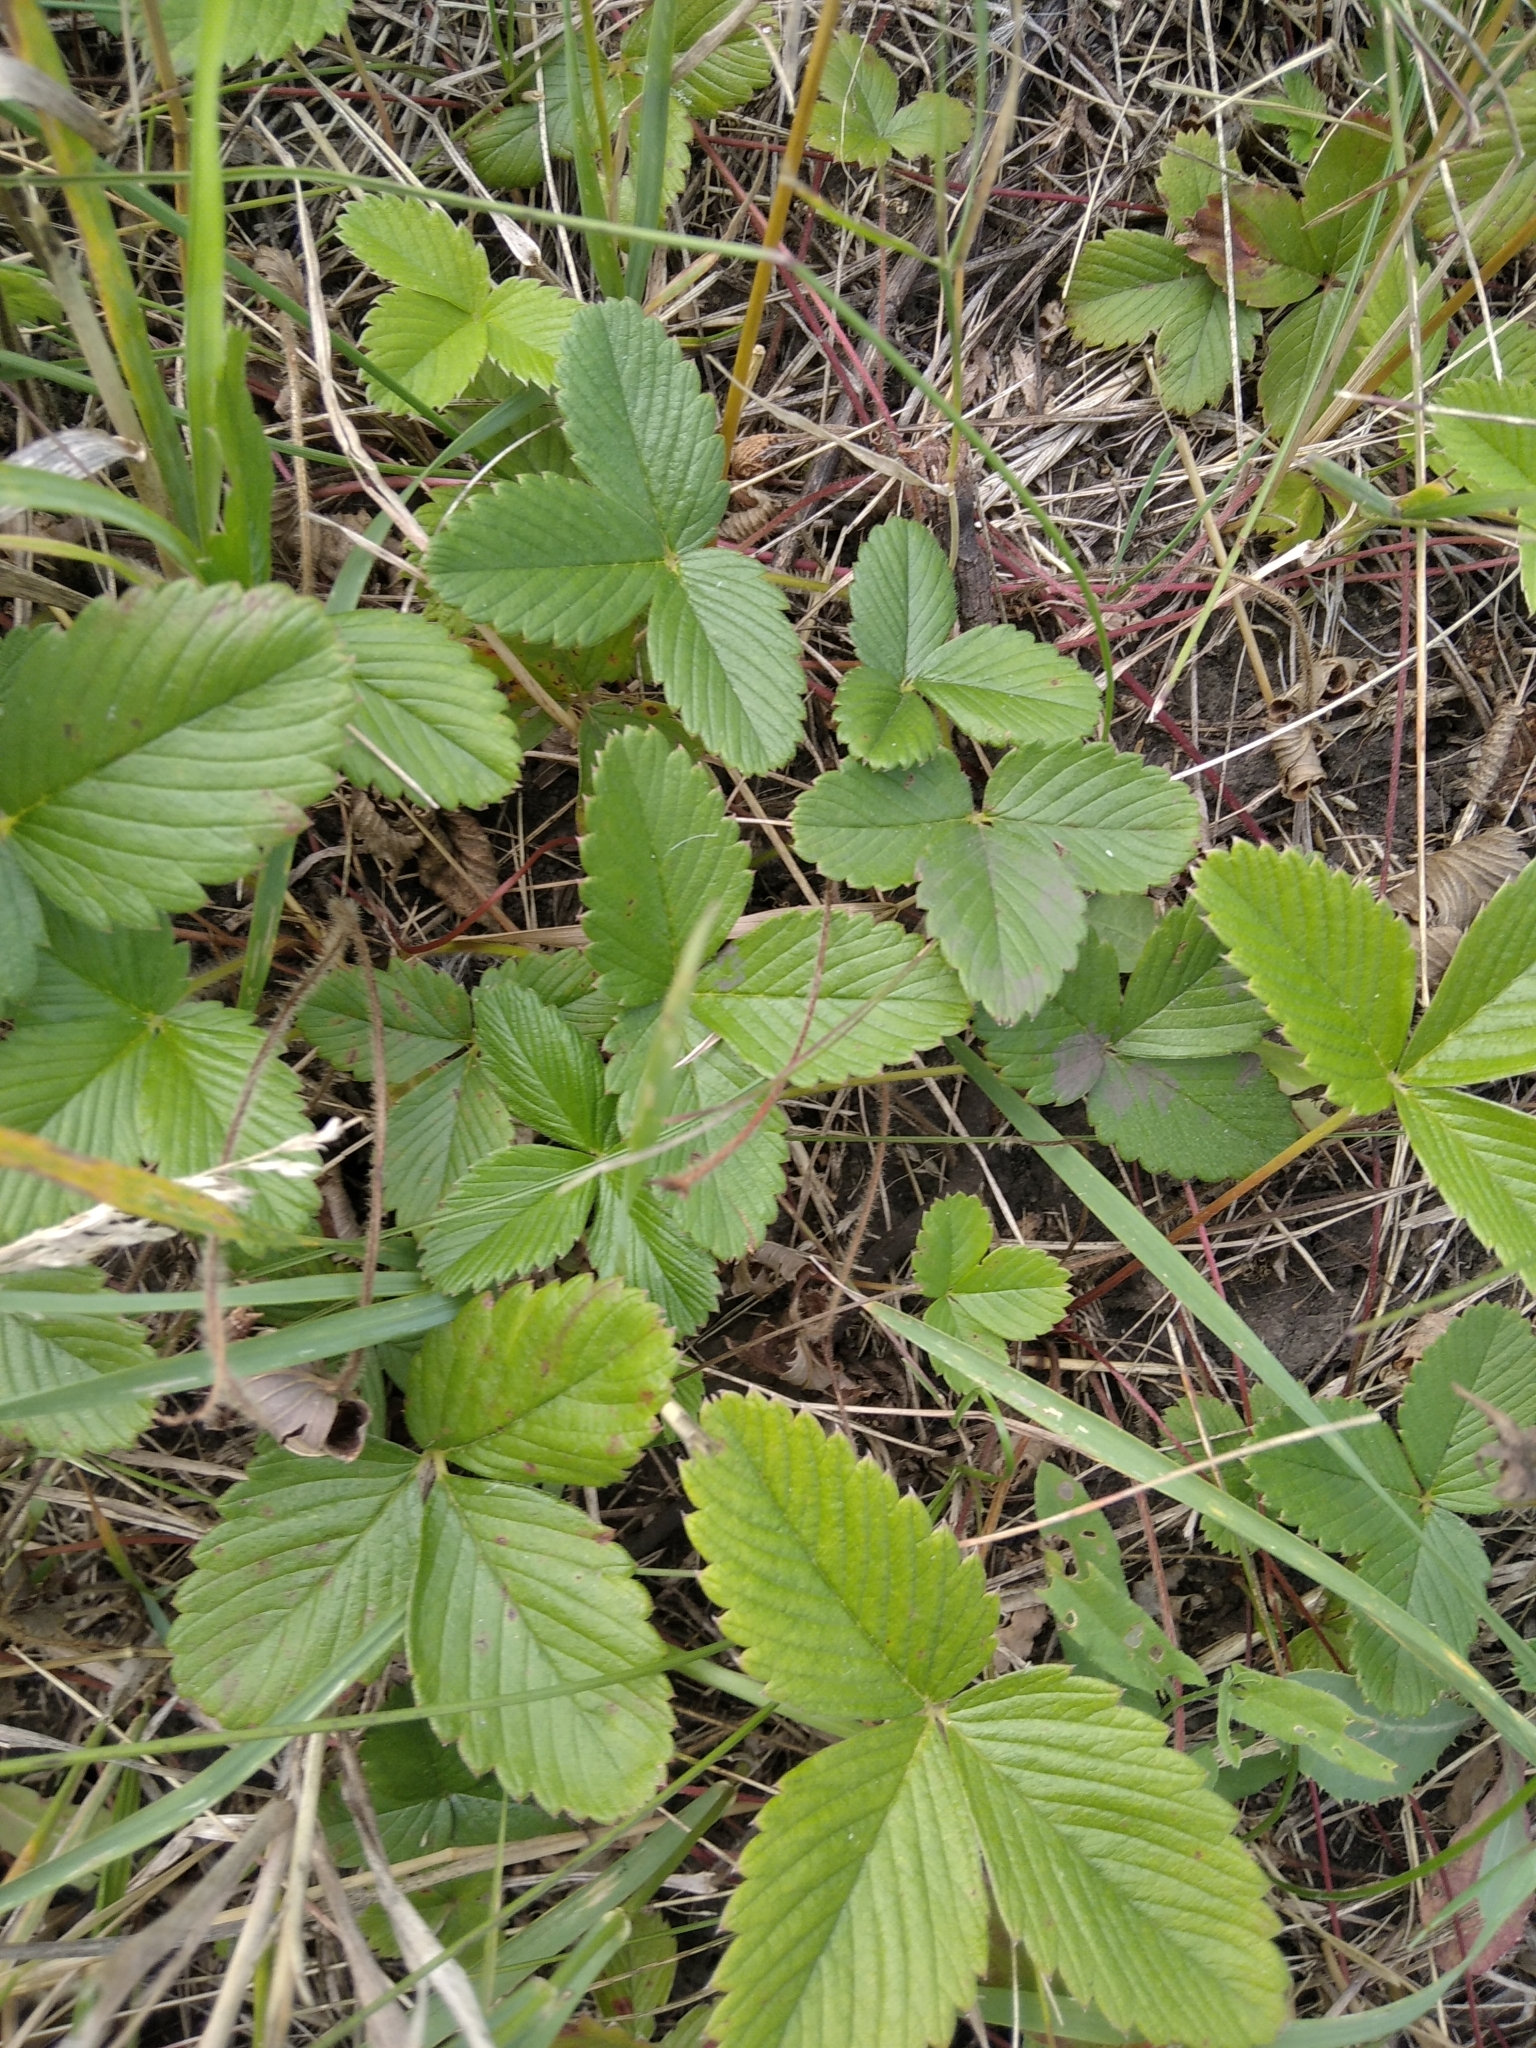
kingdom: Plantae
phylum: Tracheophyta
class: Magnoliopsida
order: Rosales
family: Rosaceae
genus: Fragaria
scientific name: Fragaria viridis
